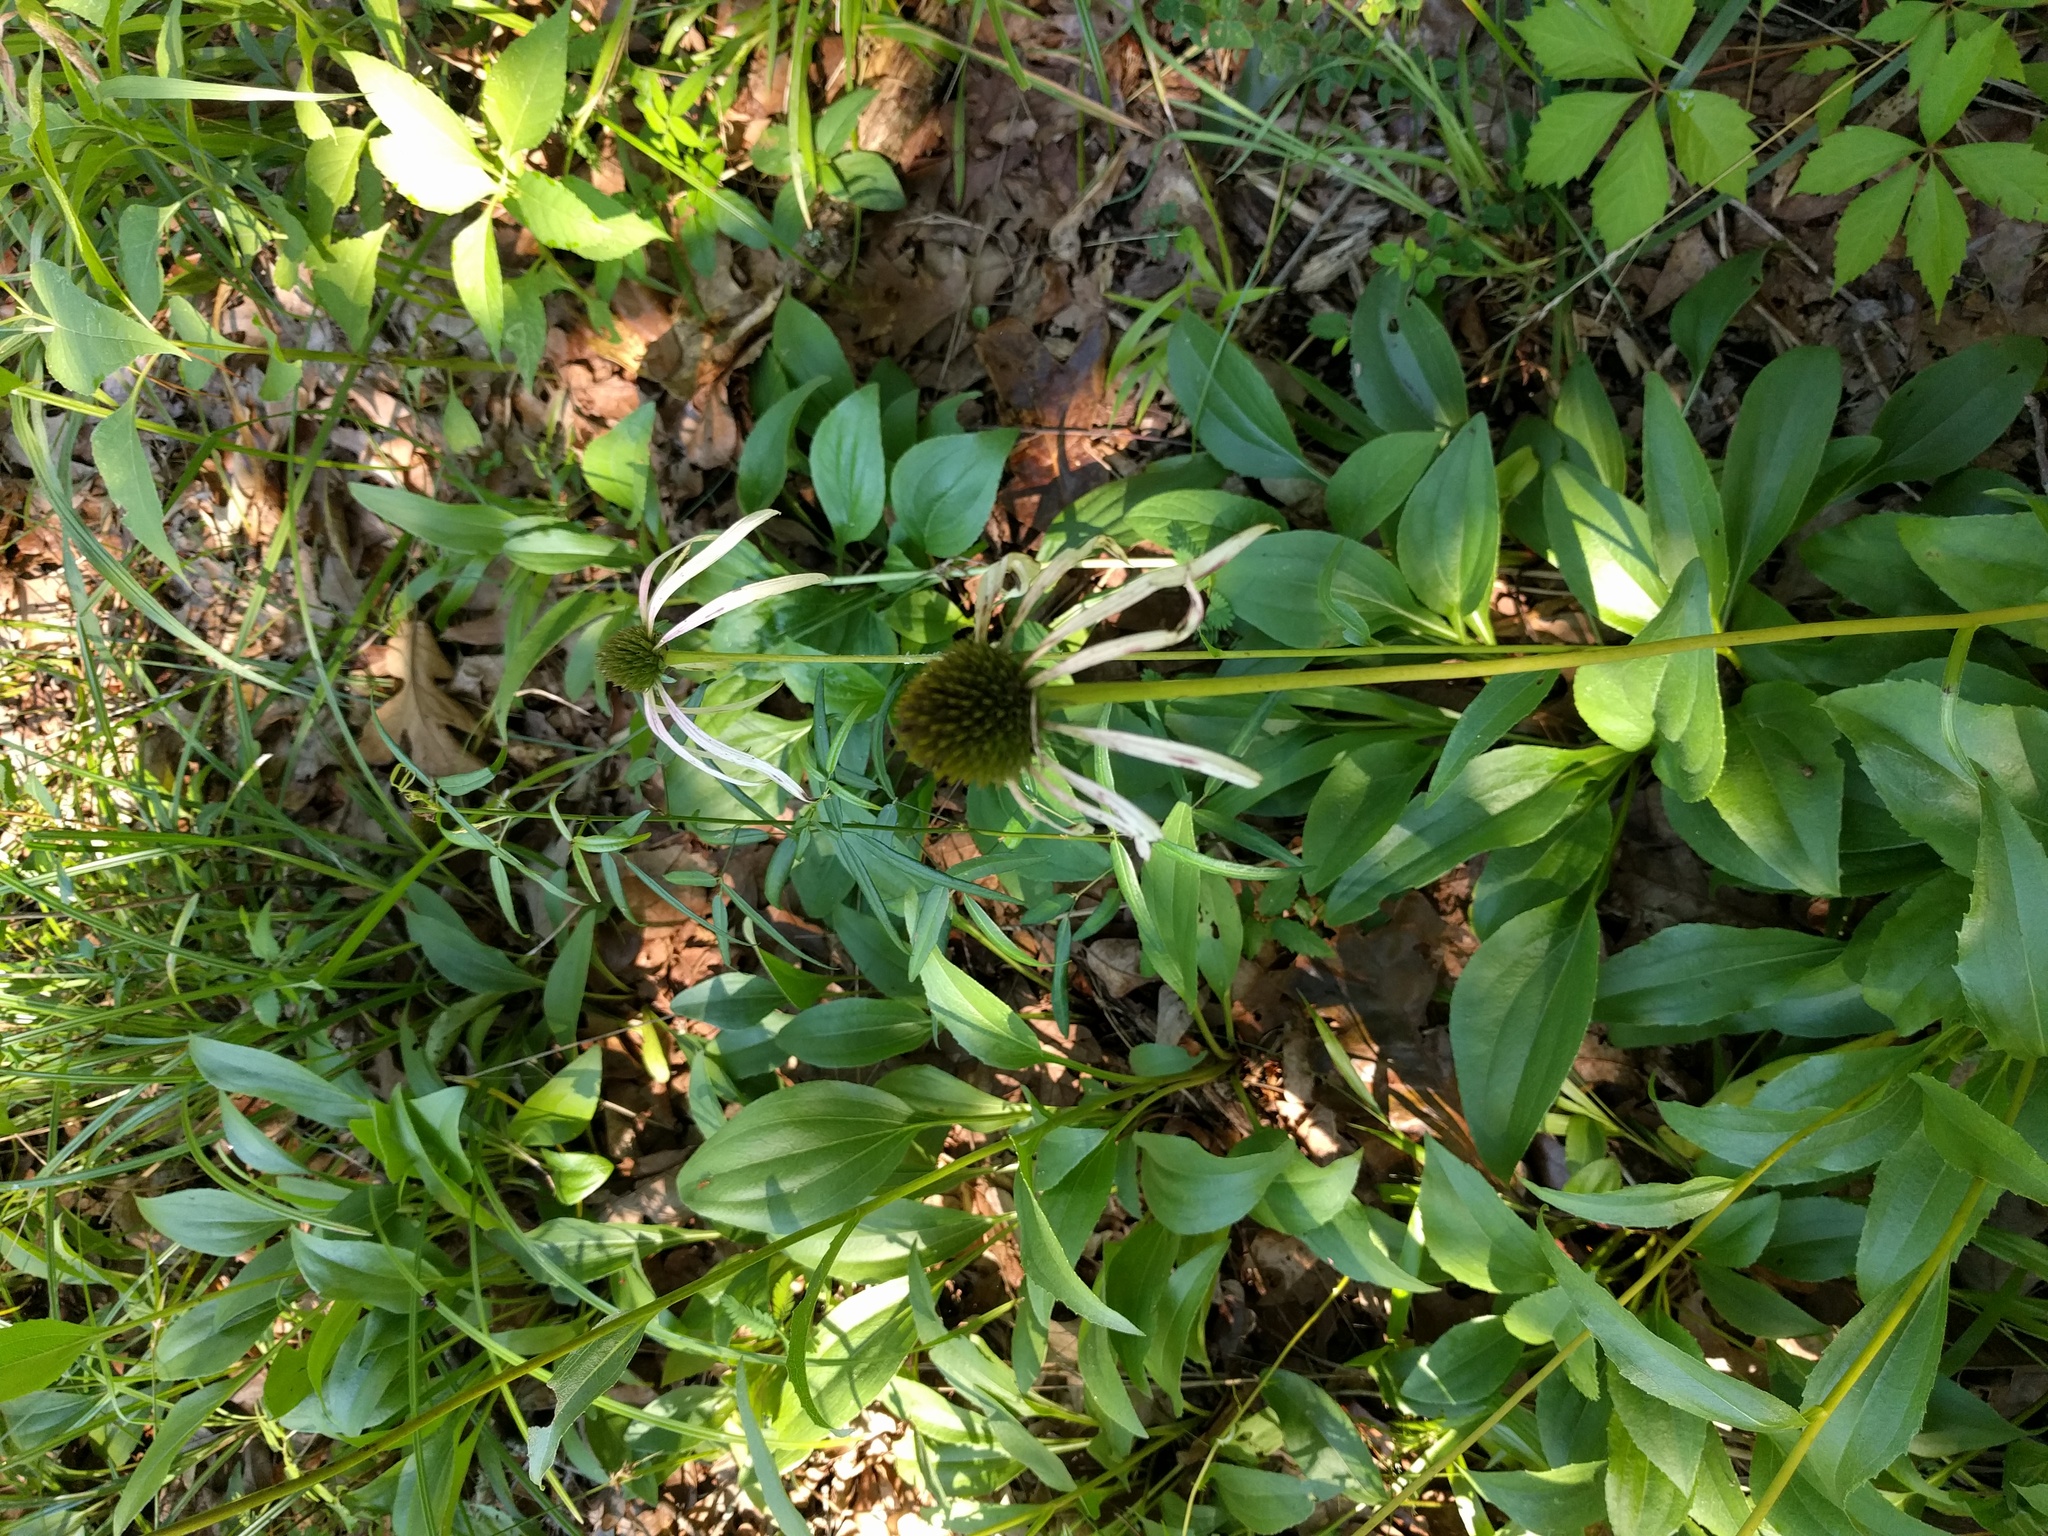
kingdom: Plantae
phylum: Tracheophyta
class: Magnoliopsida
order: Asterales
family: Asteraceae
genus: Echinacea
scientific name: Echinacea laevigata
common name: Smooth coneflower
